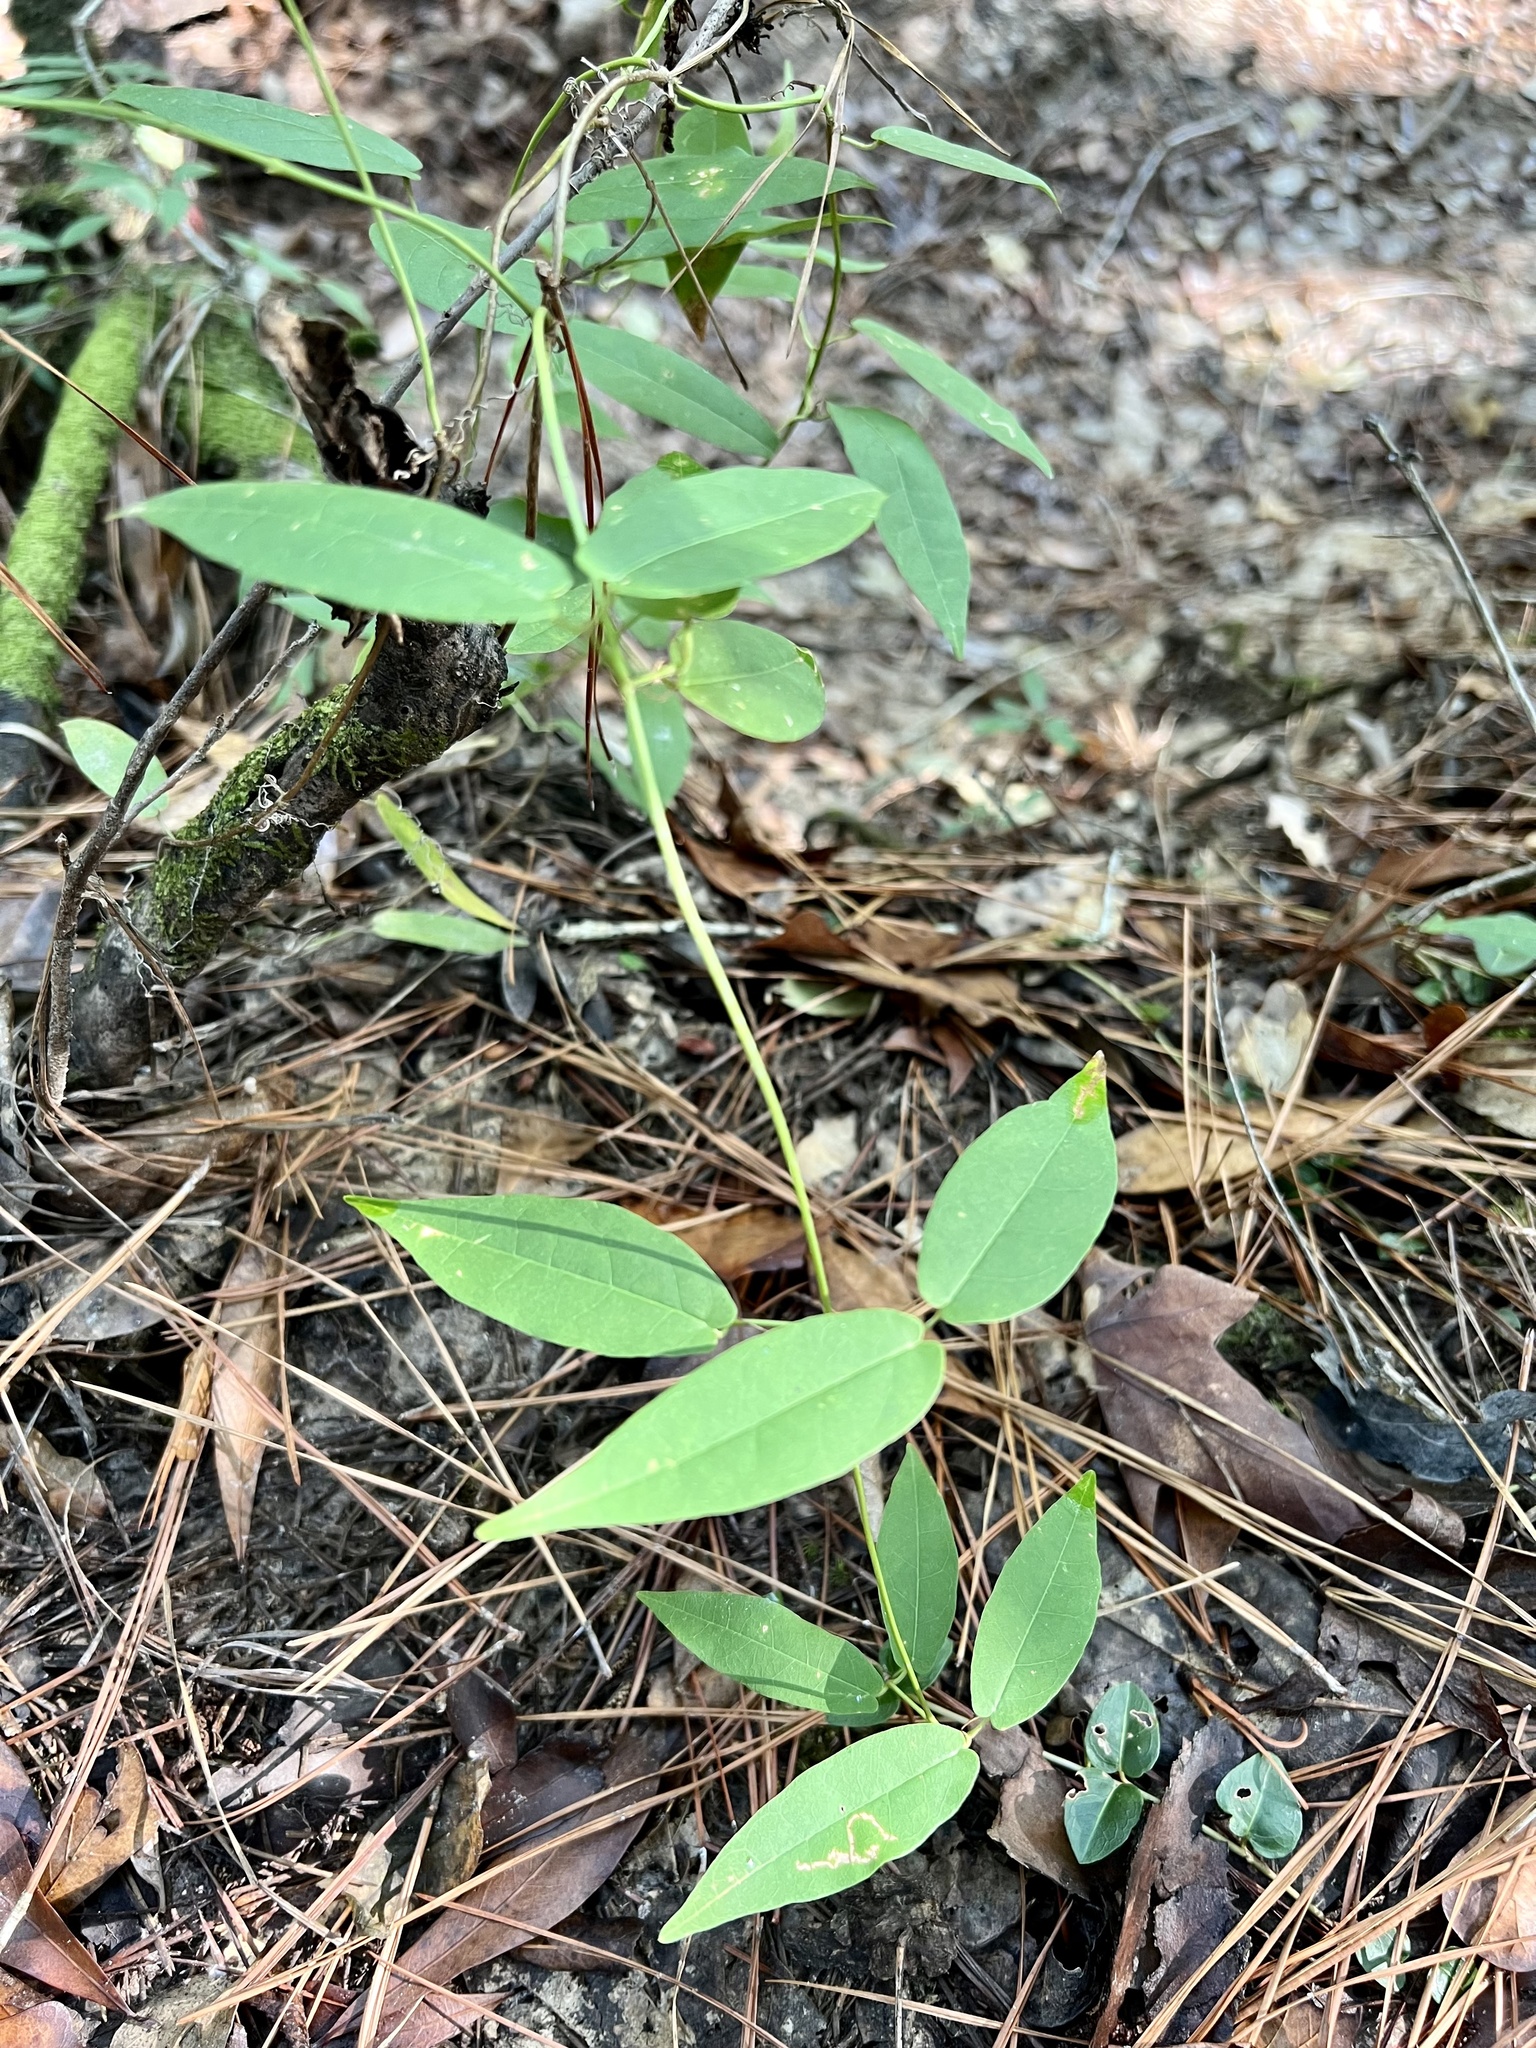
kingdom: Plantae
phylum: Tracheophyta
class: Magnoliopsida
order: Lamiales
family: Bignoniaceae
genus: Bignonia
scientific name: Bignonia capreolata
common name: Crossvine
